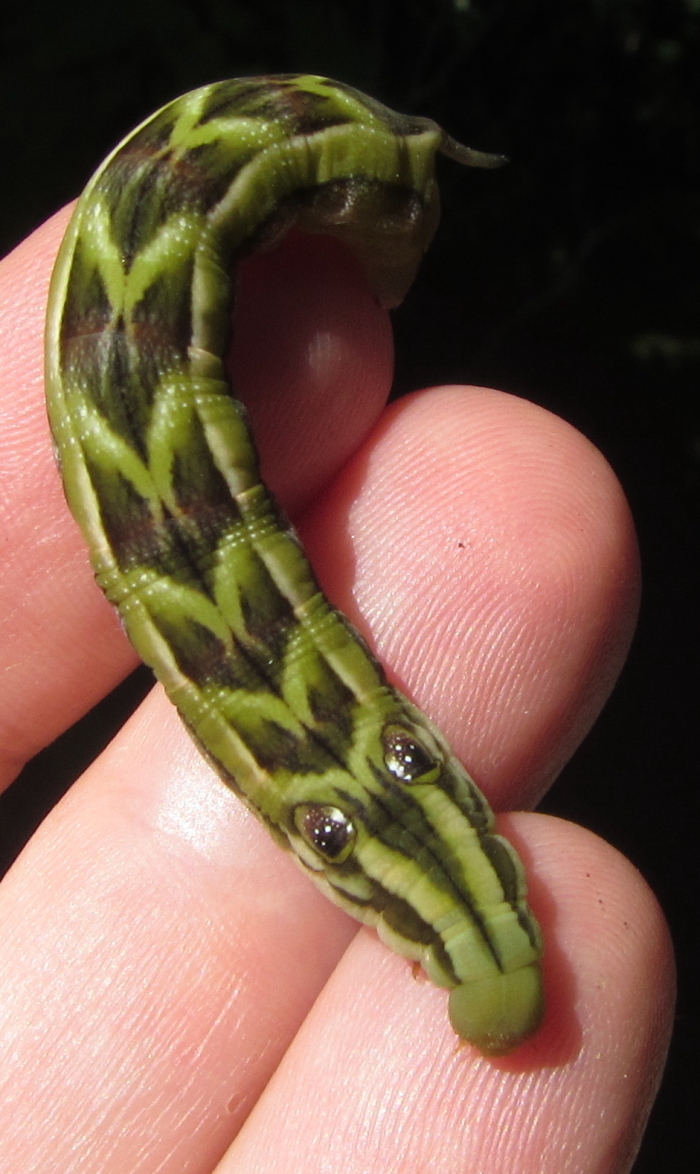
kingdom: Animalia
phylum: Arthropoda
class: Insecta
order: Lepidoptera
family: Sphingidae
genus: Theretra
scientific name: Theretra orpheus
